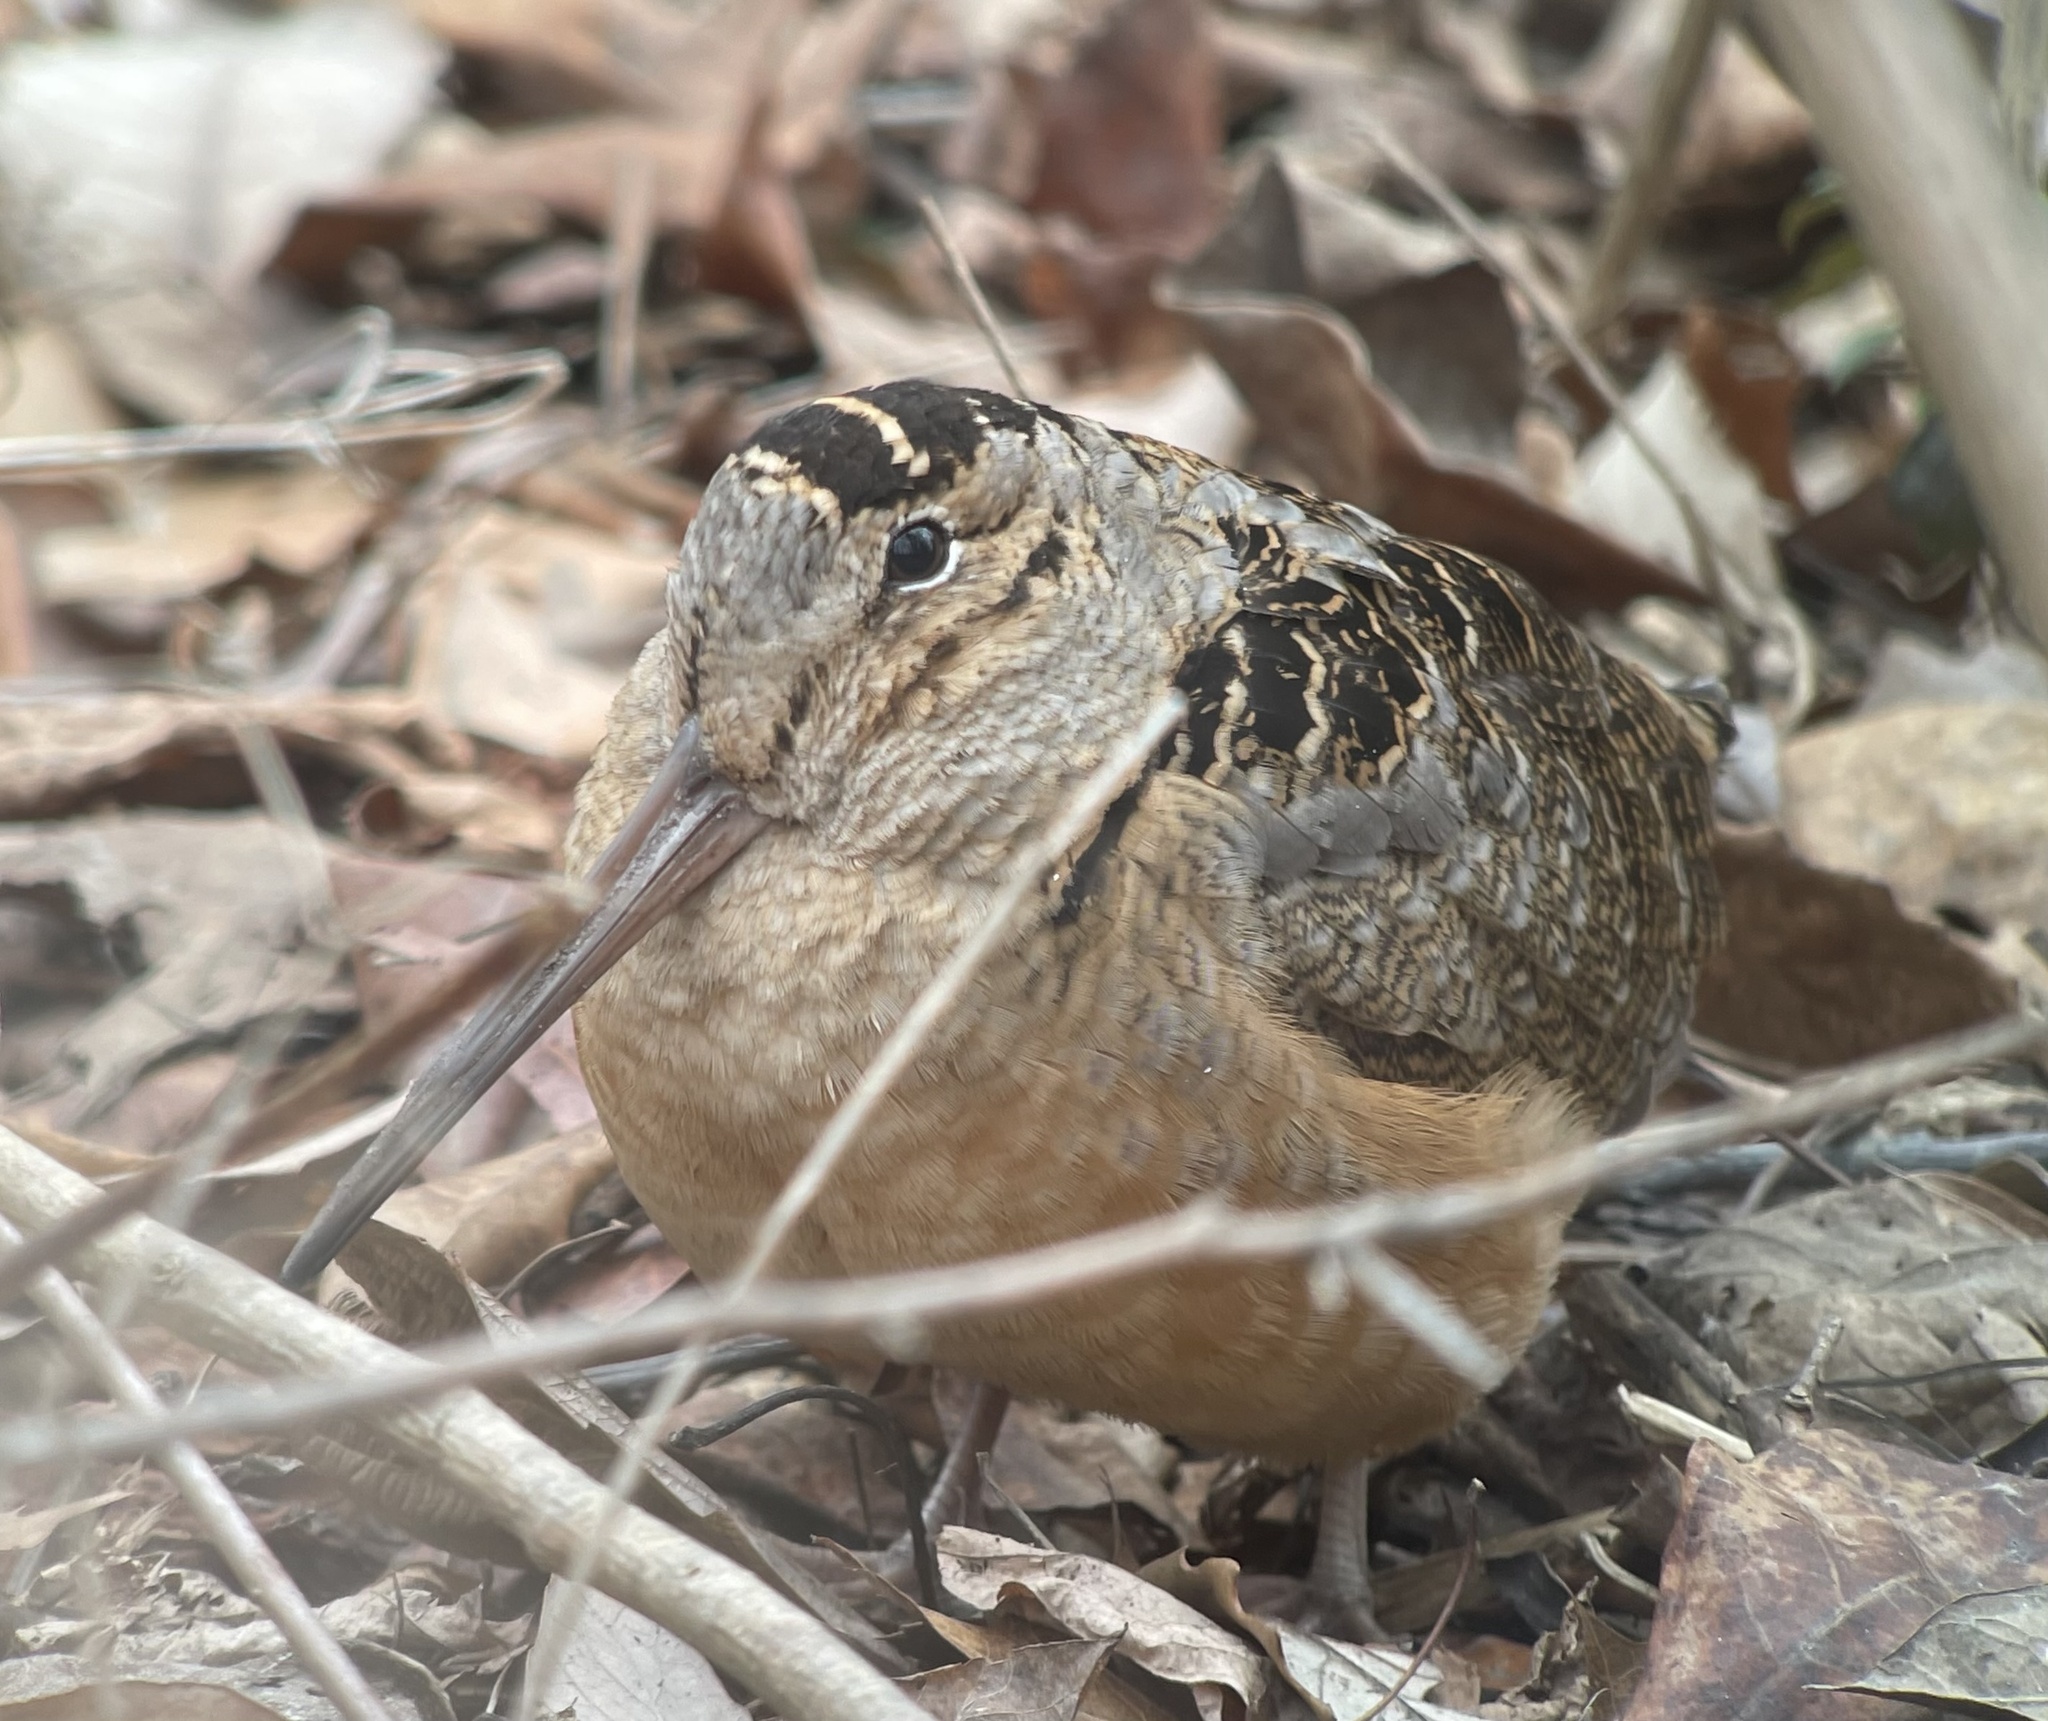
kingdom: Animalia
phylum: Chordata
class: Aves
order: Charadriiformes
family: Scolopacidae
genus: Scolopax
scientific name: Scolopax minor
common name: American woodcock
